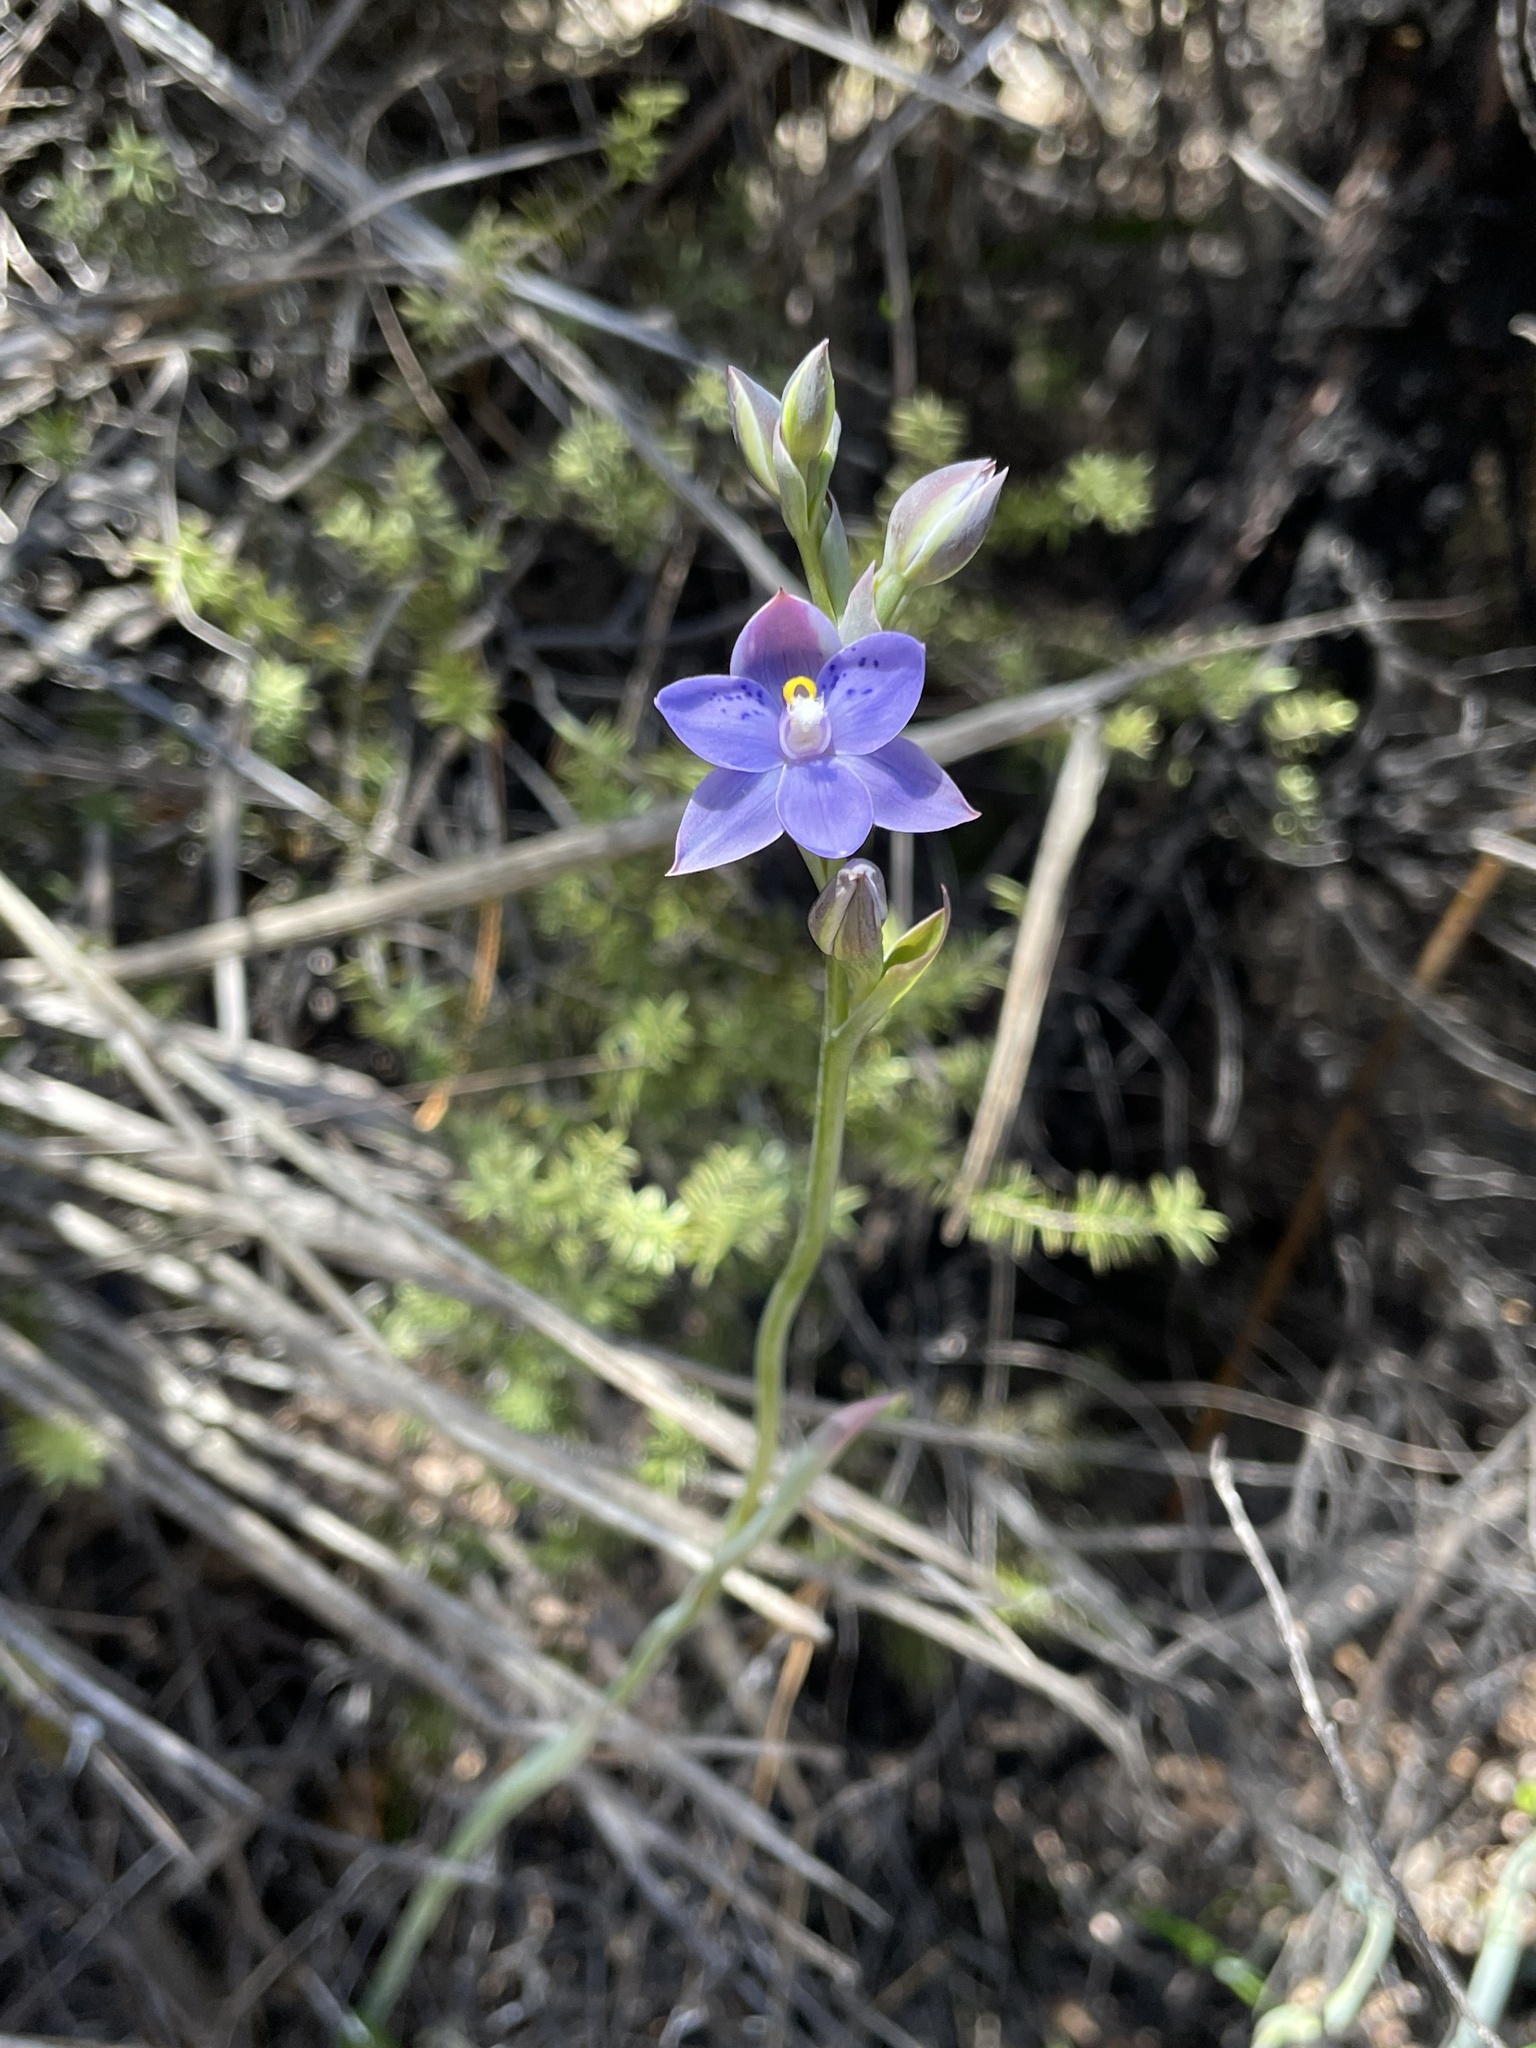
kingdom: Plantae
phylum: Tracheophyta
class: Liliopsida
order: Asparagales
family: Orchidaceae
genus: Thelymitra
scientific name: Thelymitra nervosa
